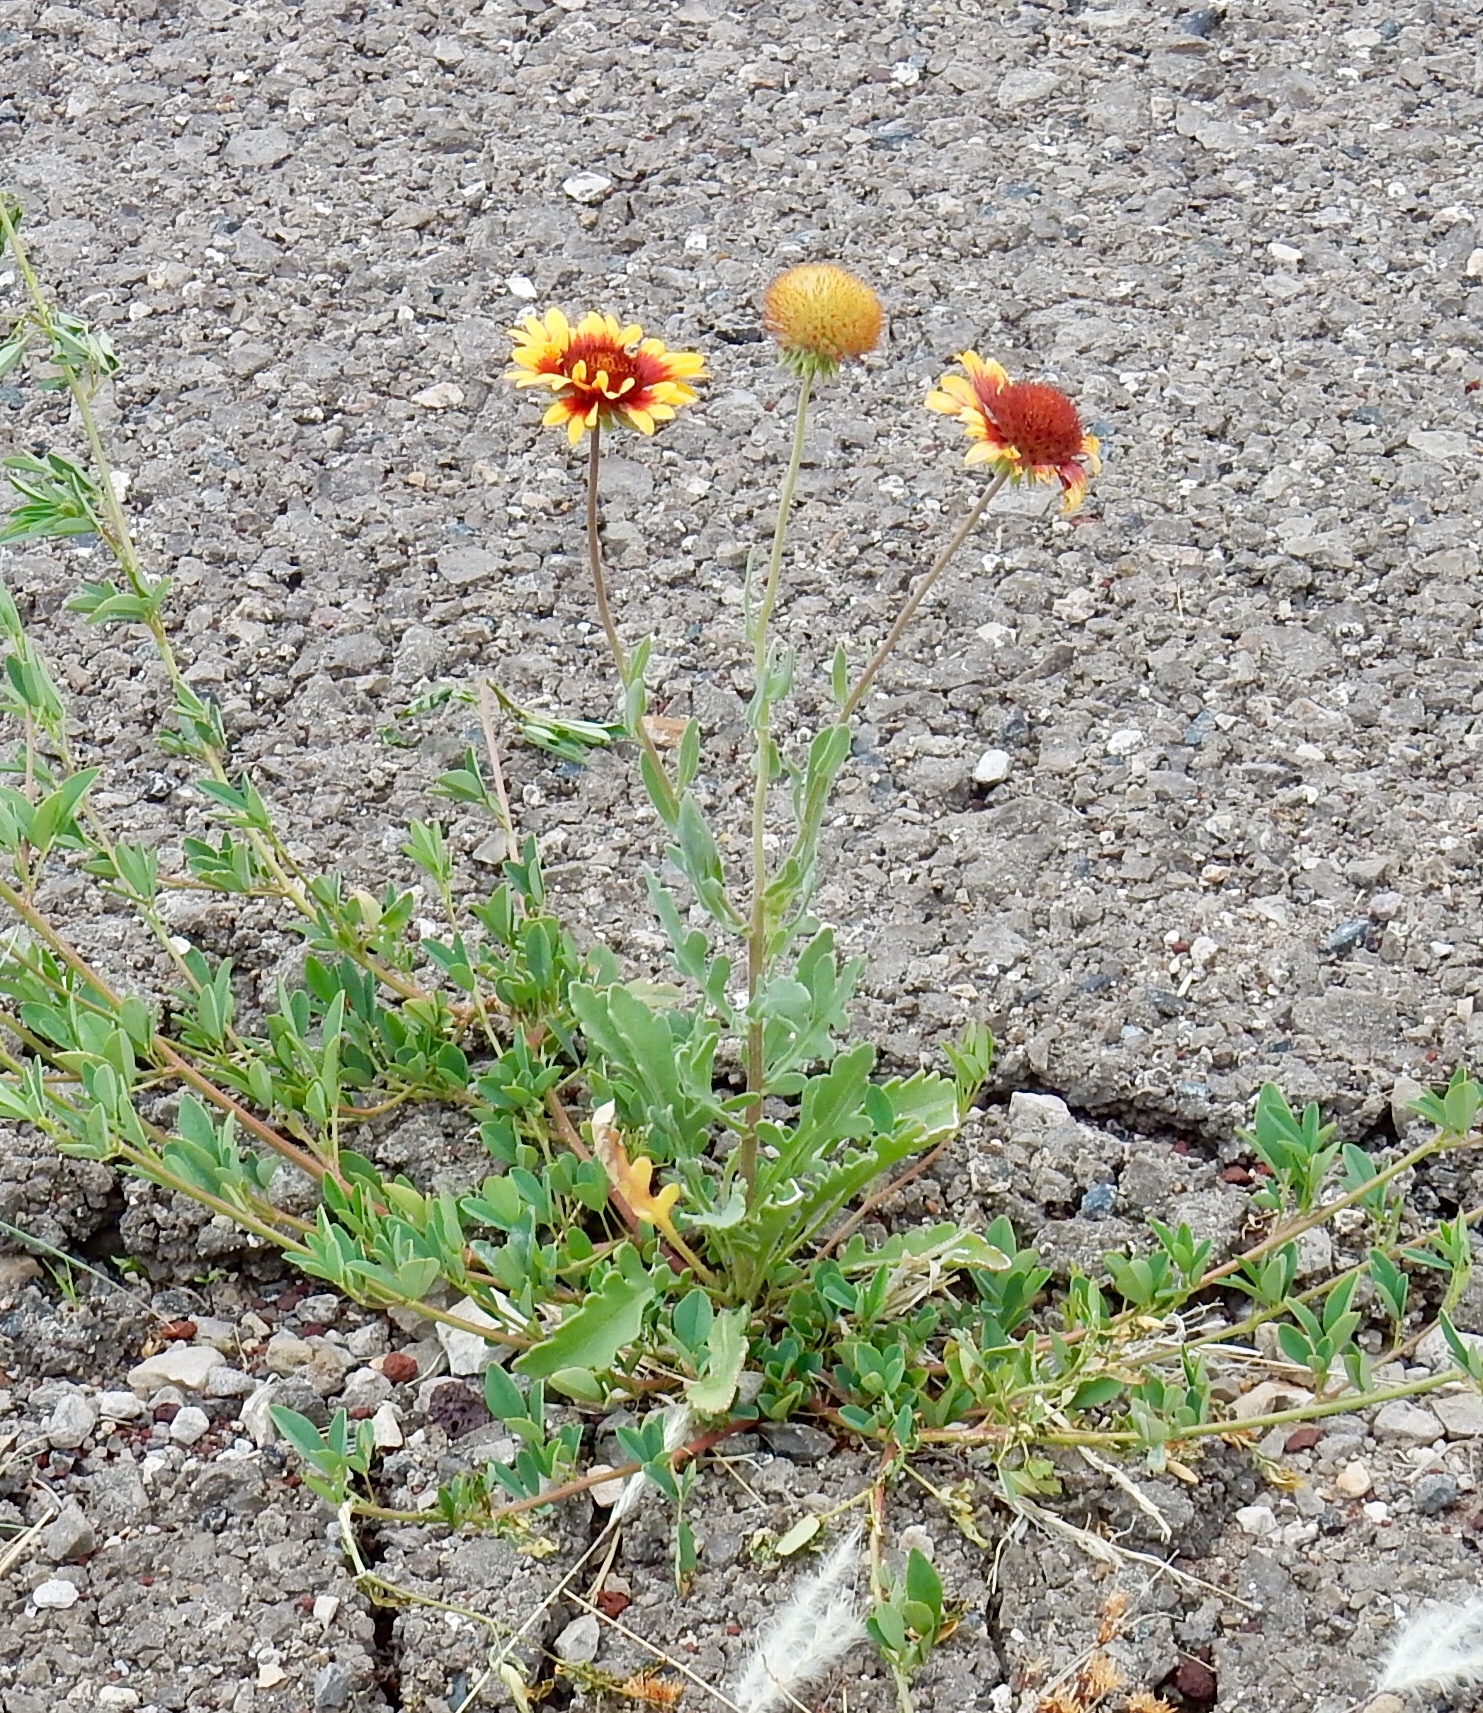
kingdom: Plantae
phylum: Tracheophyta
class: Magnoliopsida
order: Asterales
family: Asteraceae
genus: Gaillardia
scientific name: Gaillardia pulchella
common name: Firewheel
